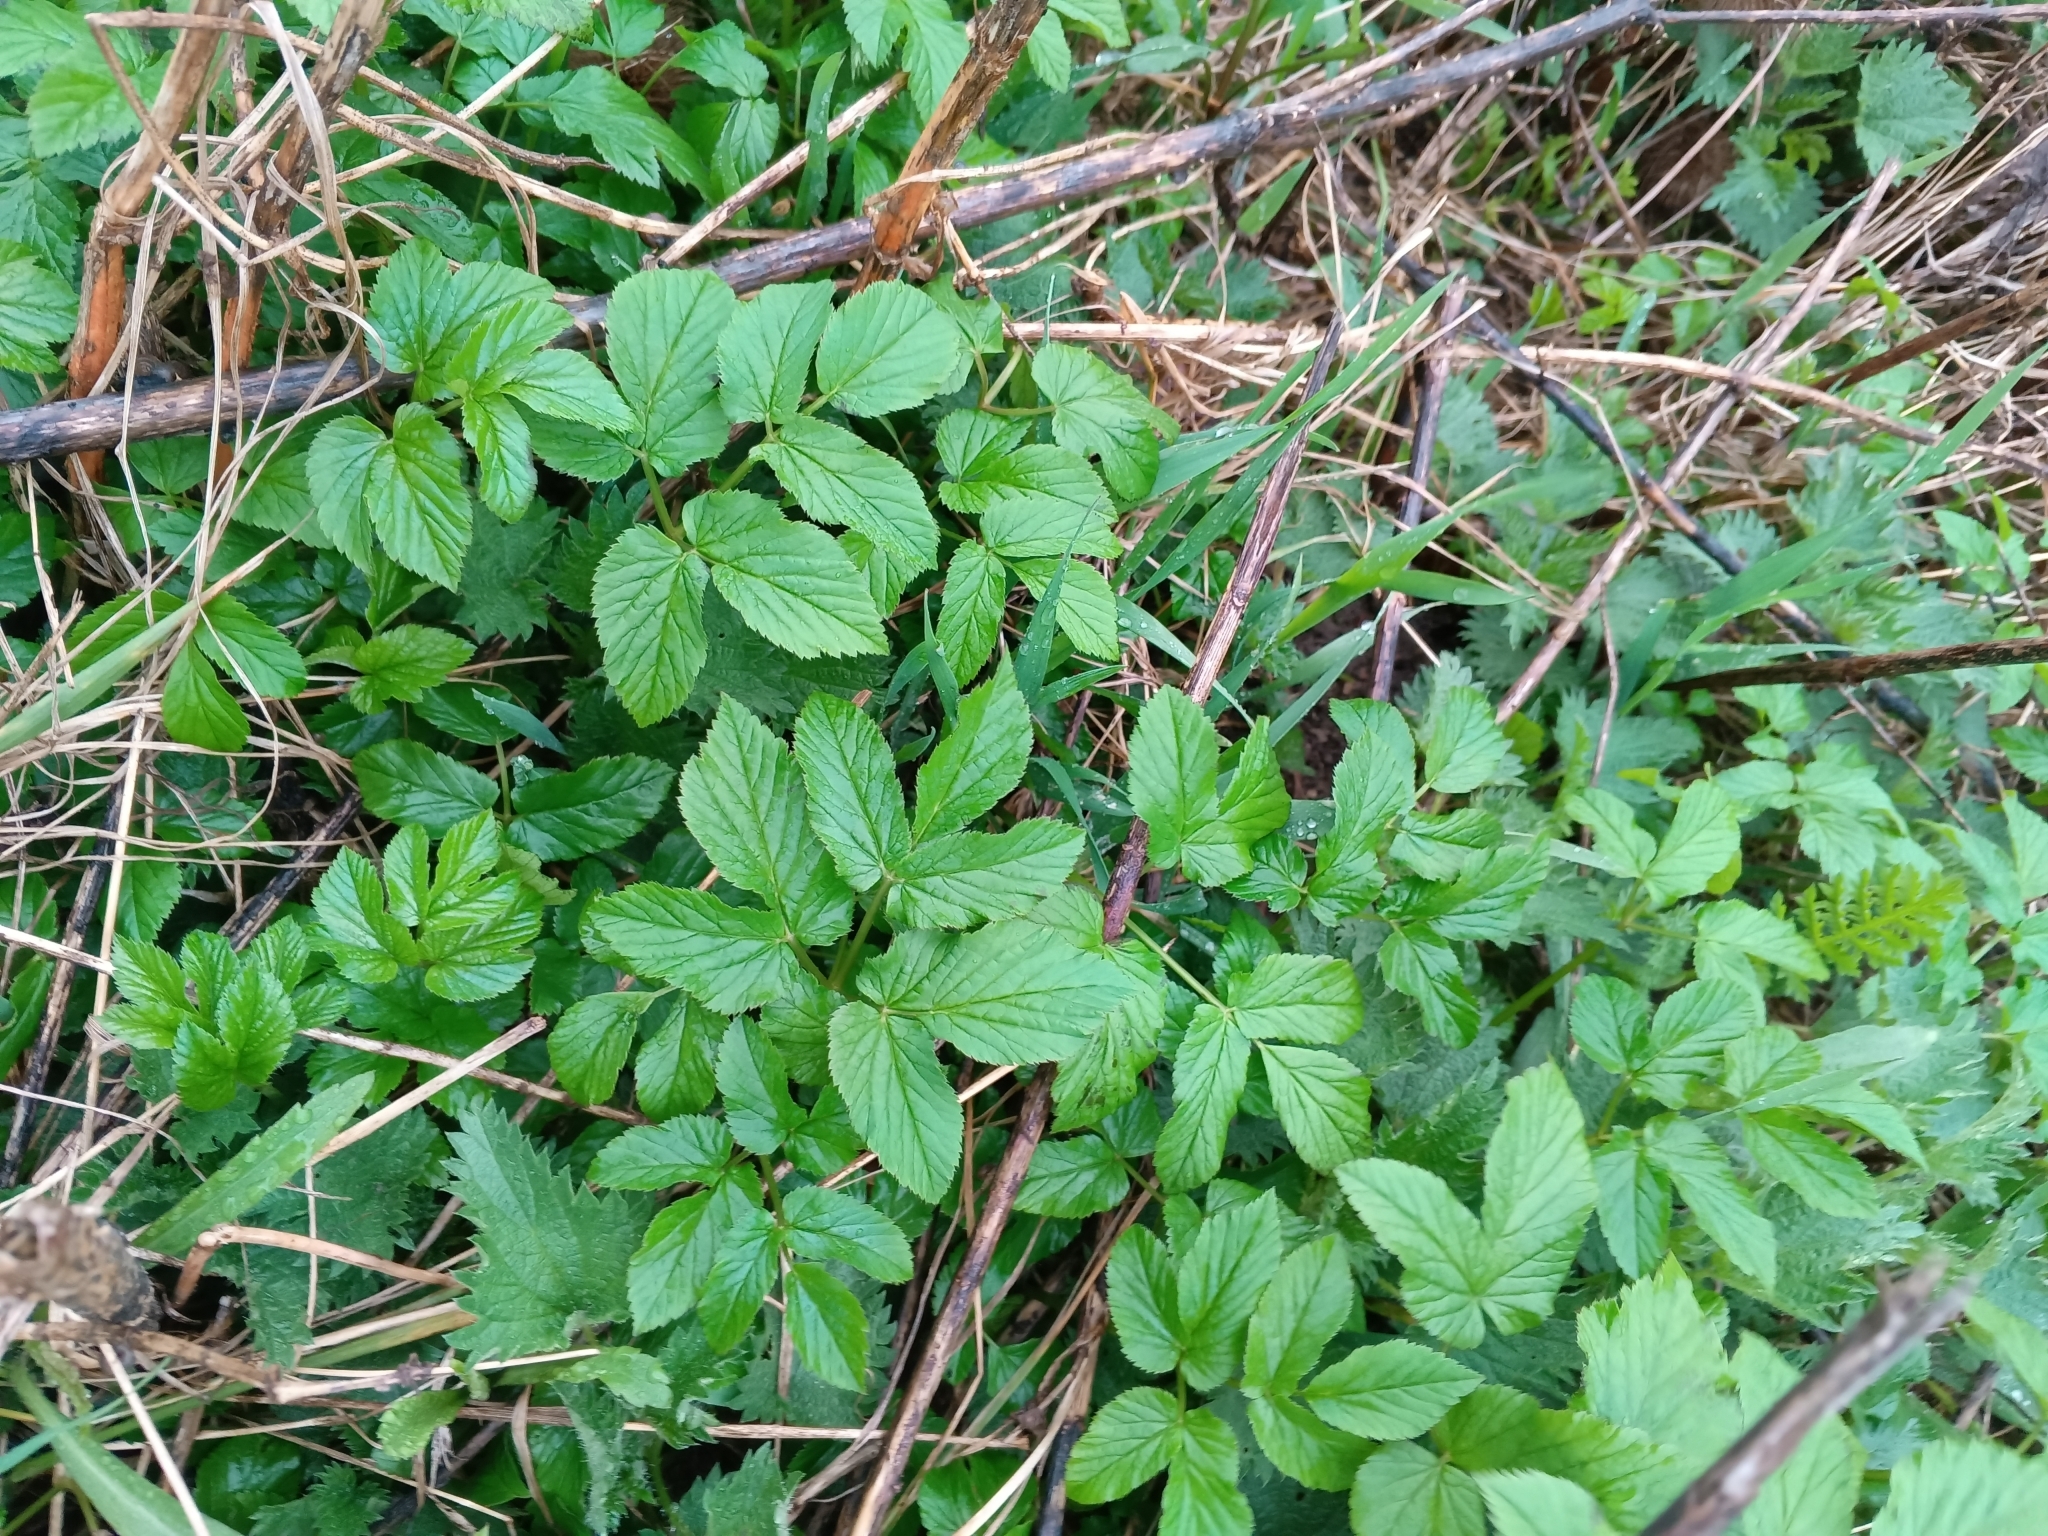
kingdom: Plantae
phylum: Tracheophyta
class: Magnoliopsida
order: Apiales
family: Apiaceae
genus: Aegopodium
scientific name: Aegopodium podagraria
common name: Ground-elder
